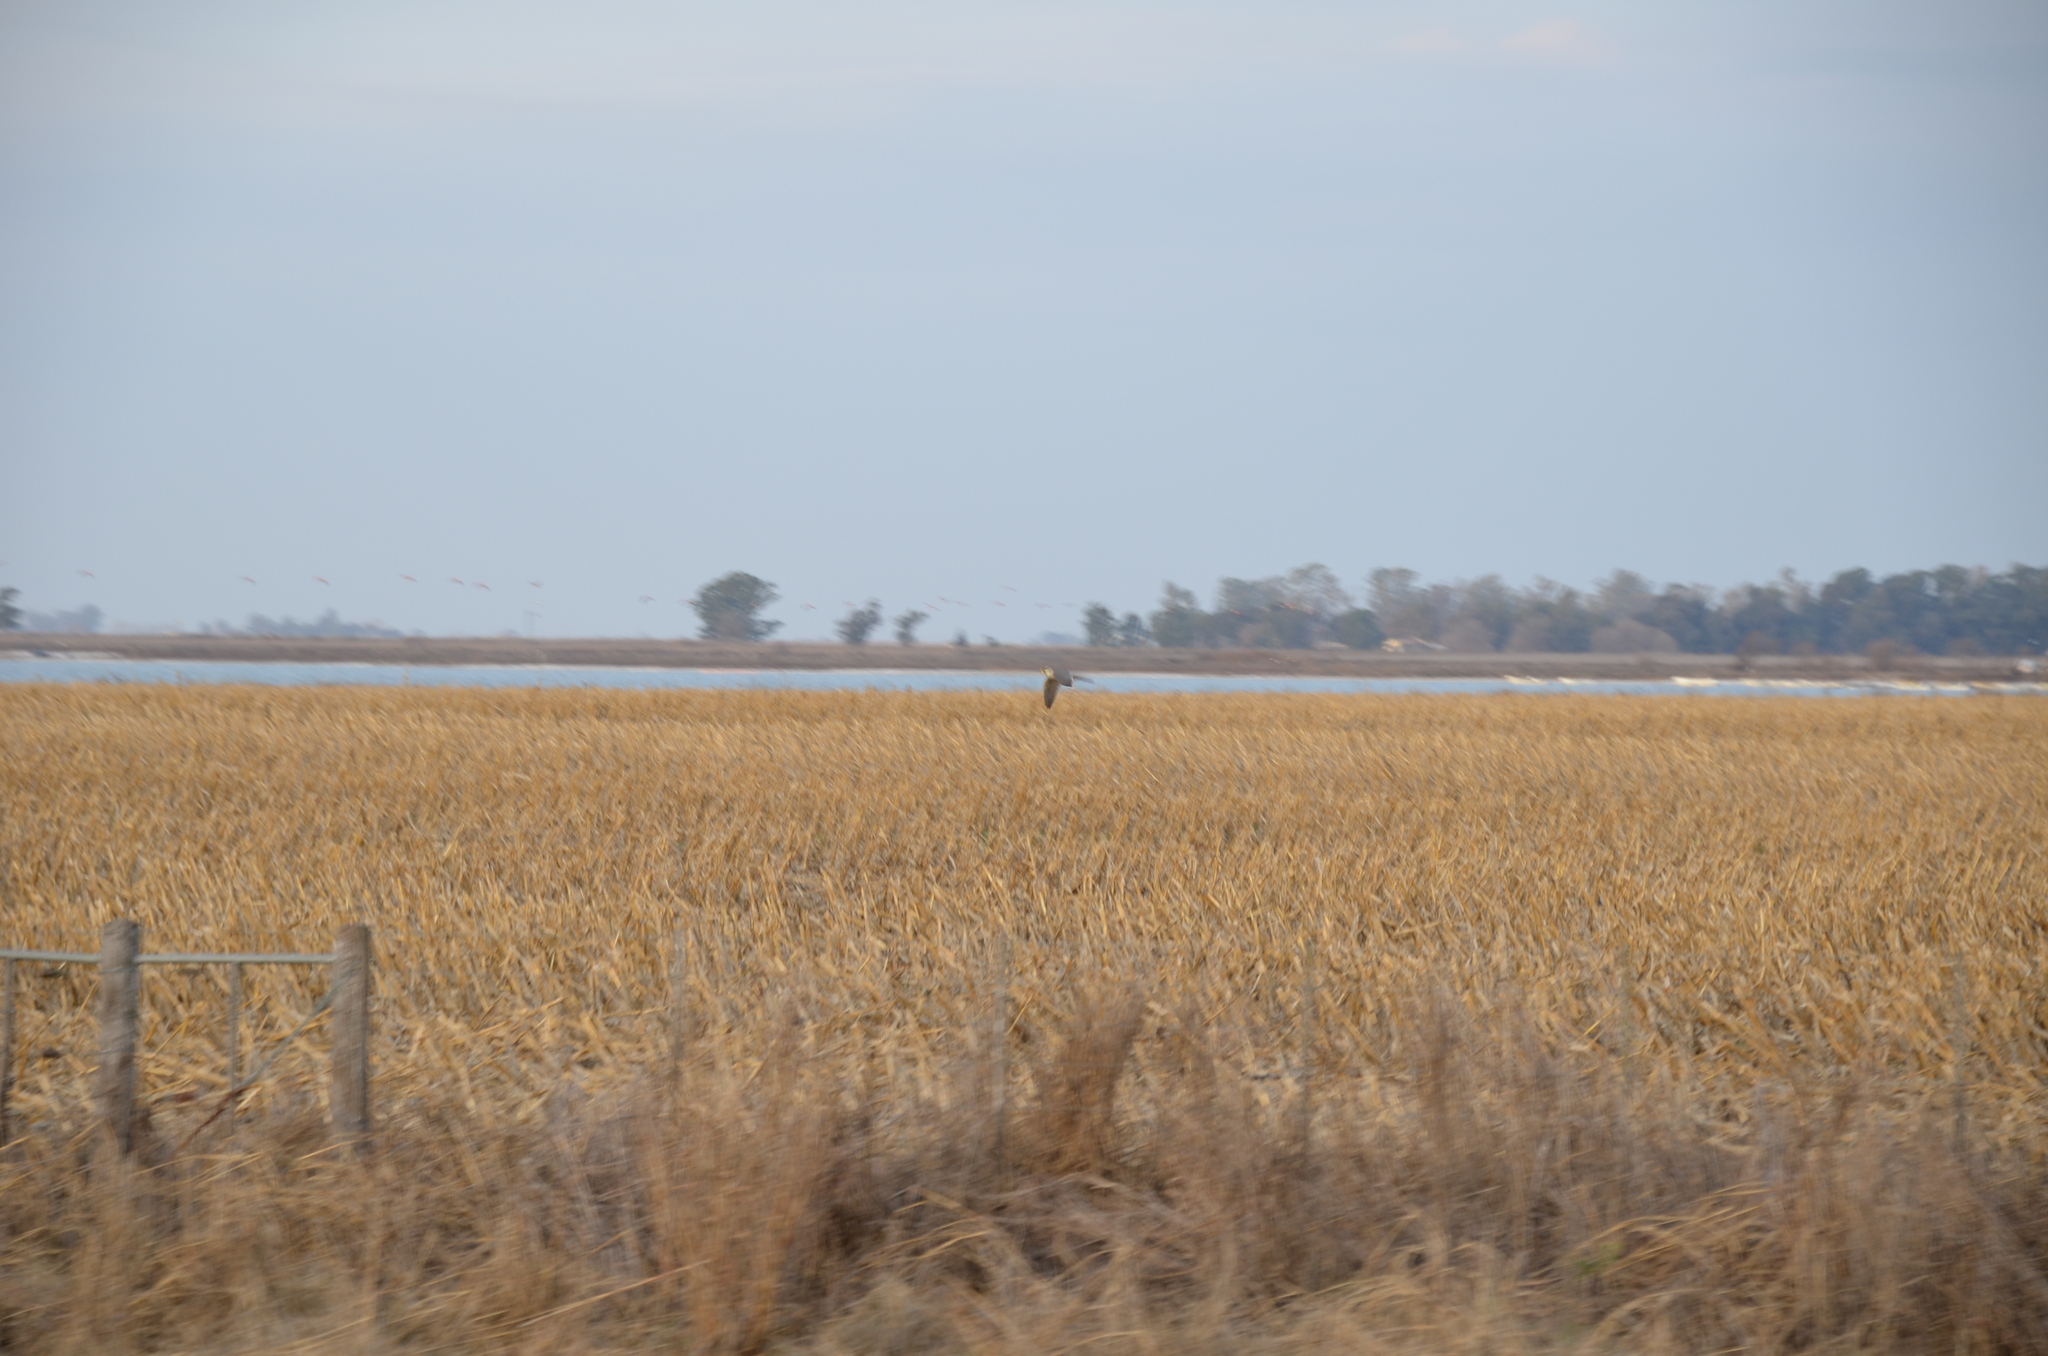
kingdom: Animalia
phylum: Chordata
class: Aves
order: Falconiformes
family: Falconidae
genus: Falco
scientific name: Falco sparverius
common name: American kestrel
